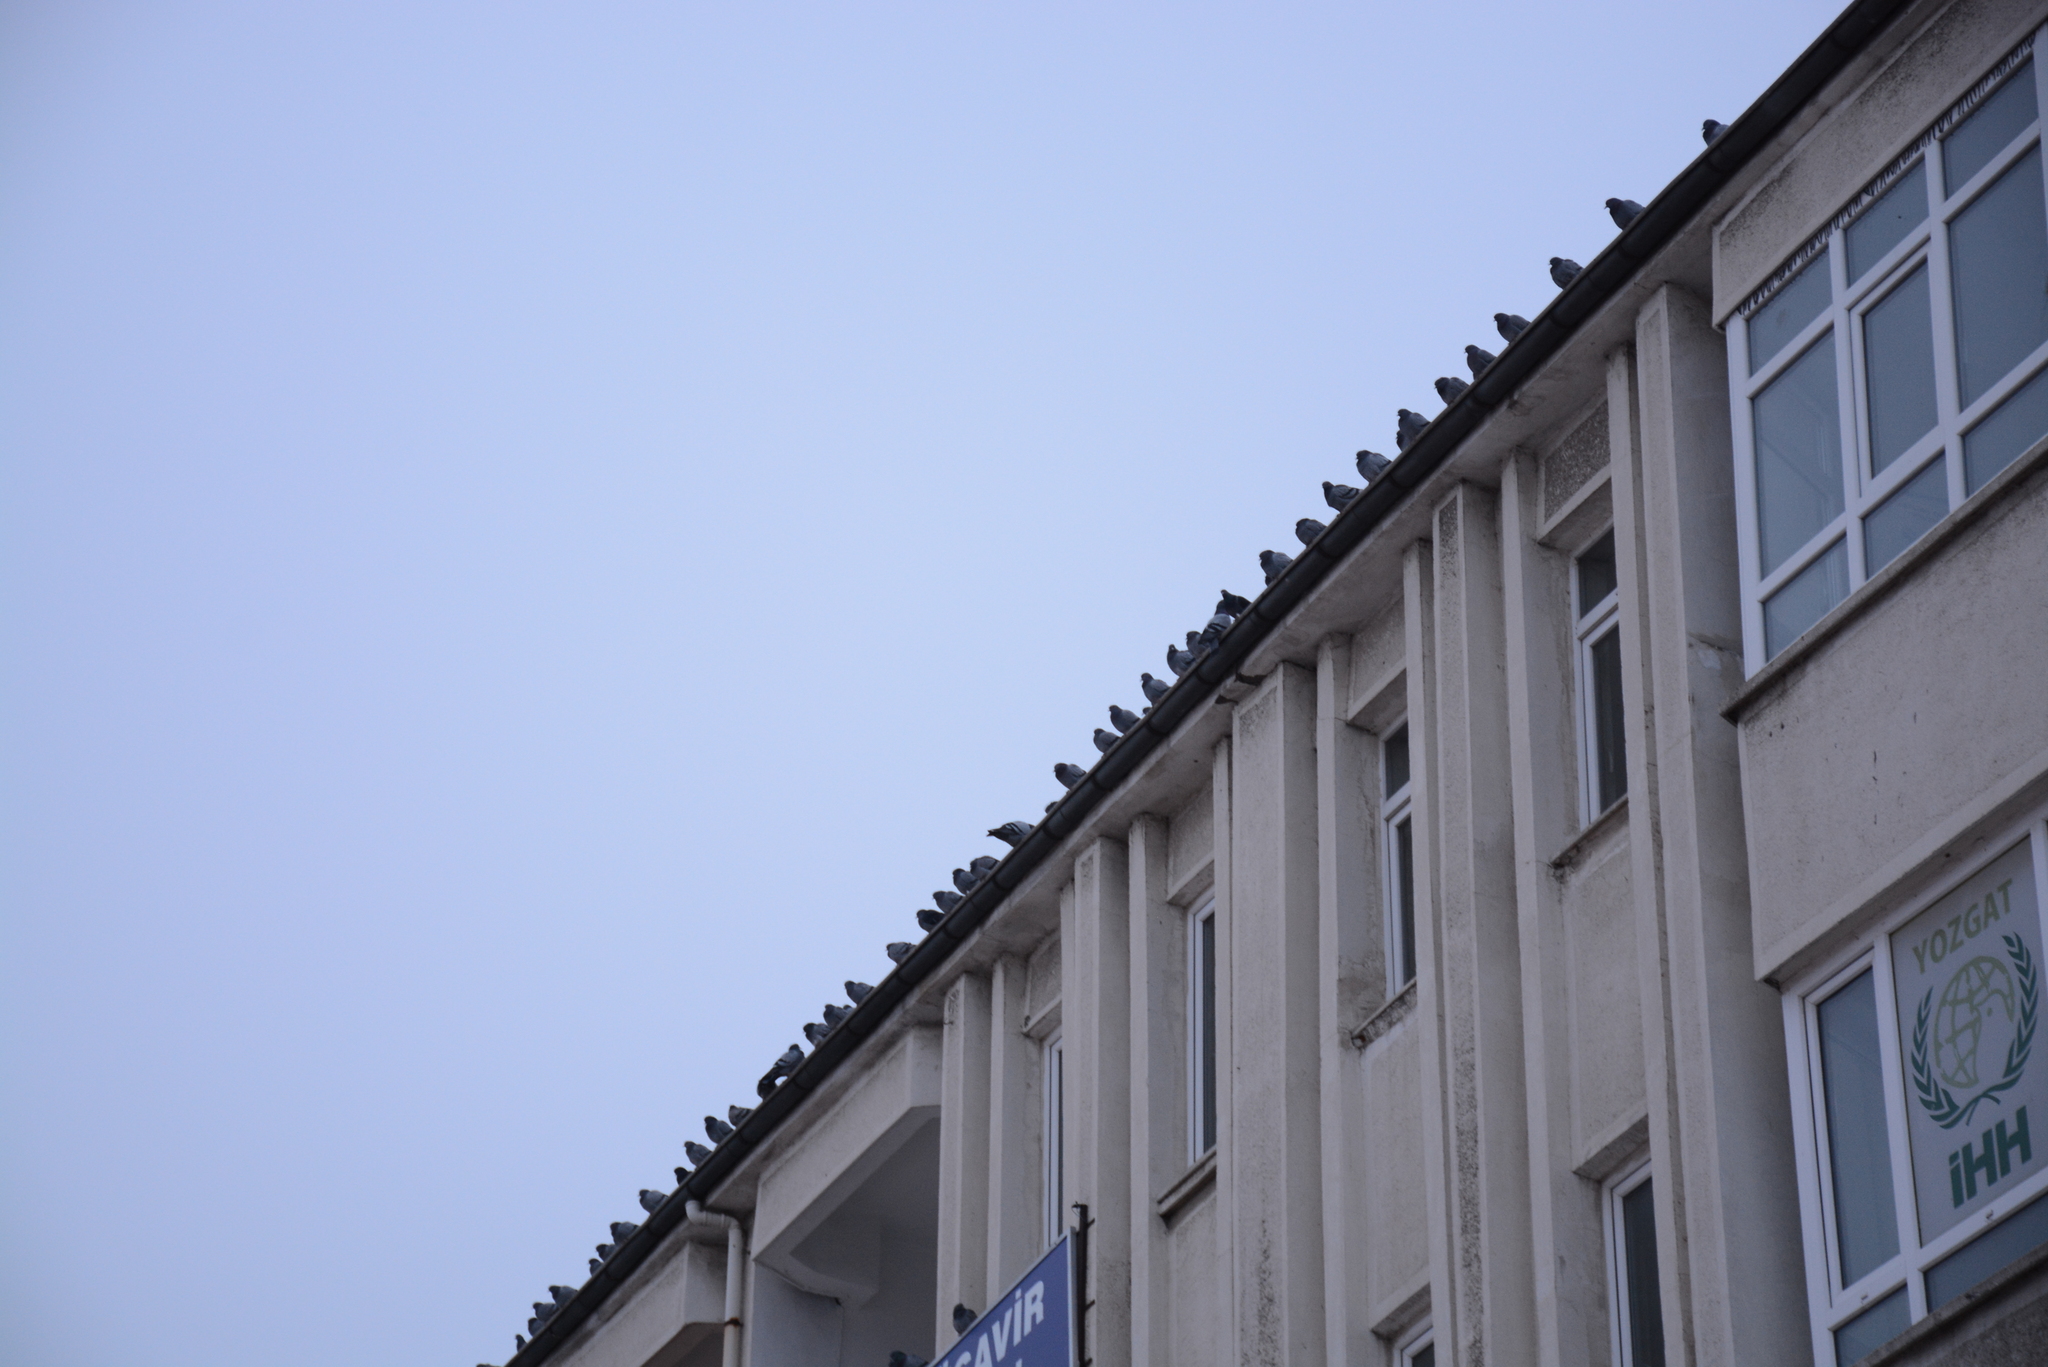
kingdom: Animalia
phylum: Chordata
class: Aves
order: Columbiformes
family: Columbidae
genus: Columba
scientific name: Columba livia
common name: Rock pigeon
